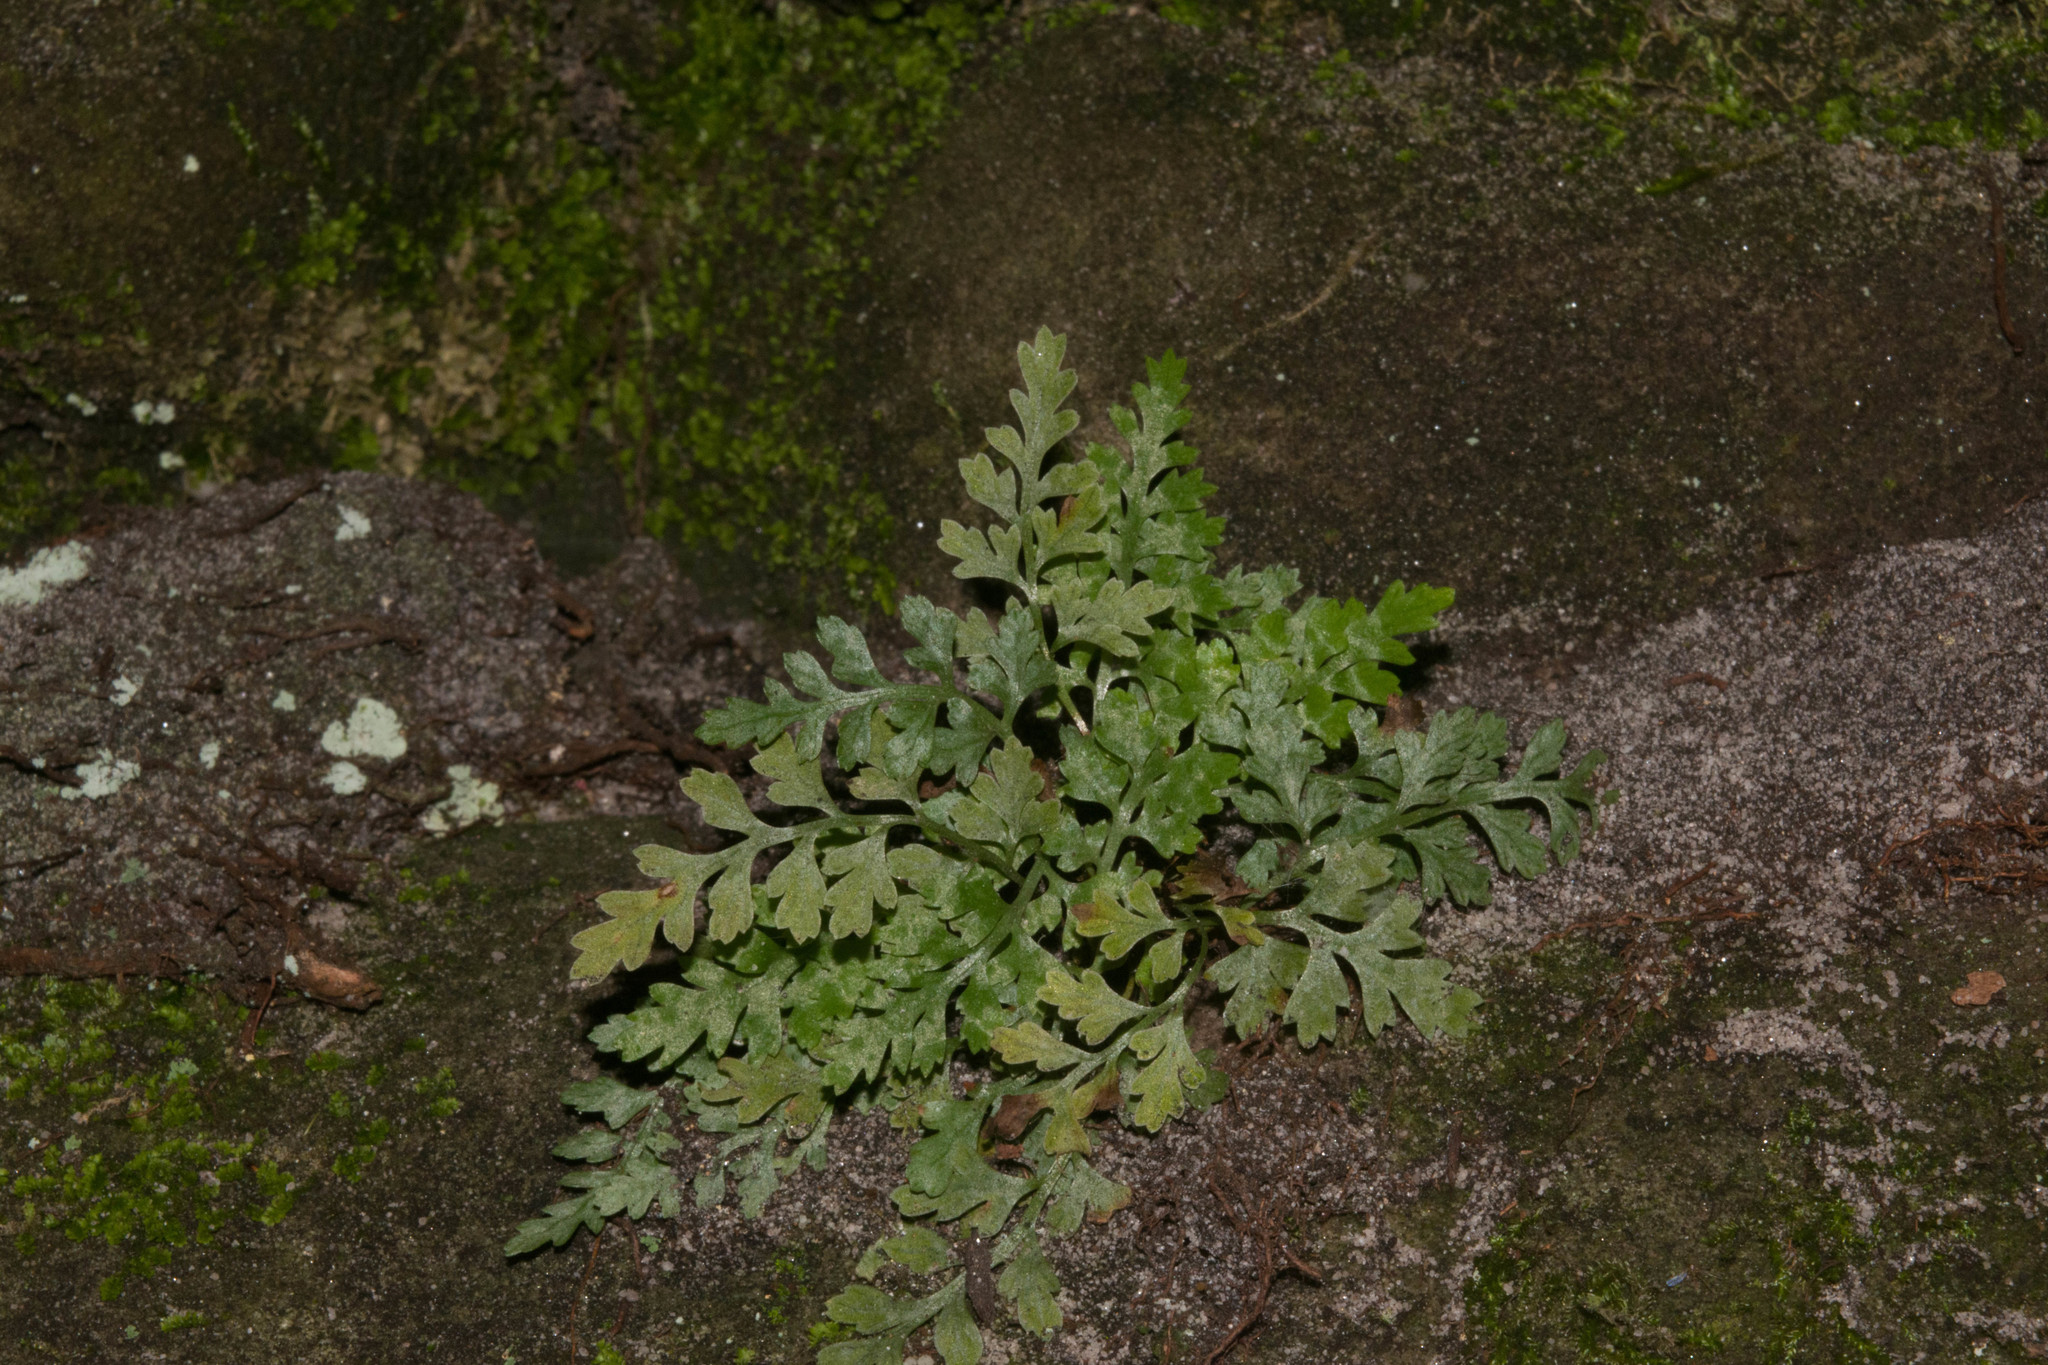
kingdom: Plantae
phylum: Tracheophyta
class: Polypodiopsida
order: Polypodiales
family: Aspleniaceae
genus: Asplenium
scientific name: Asplenium montanum
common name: Mountain spleenwort
